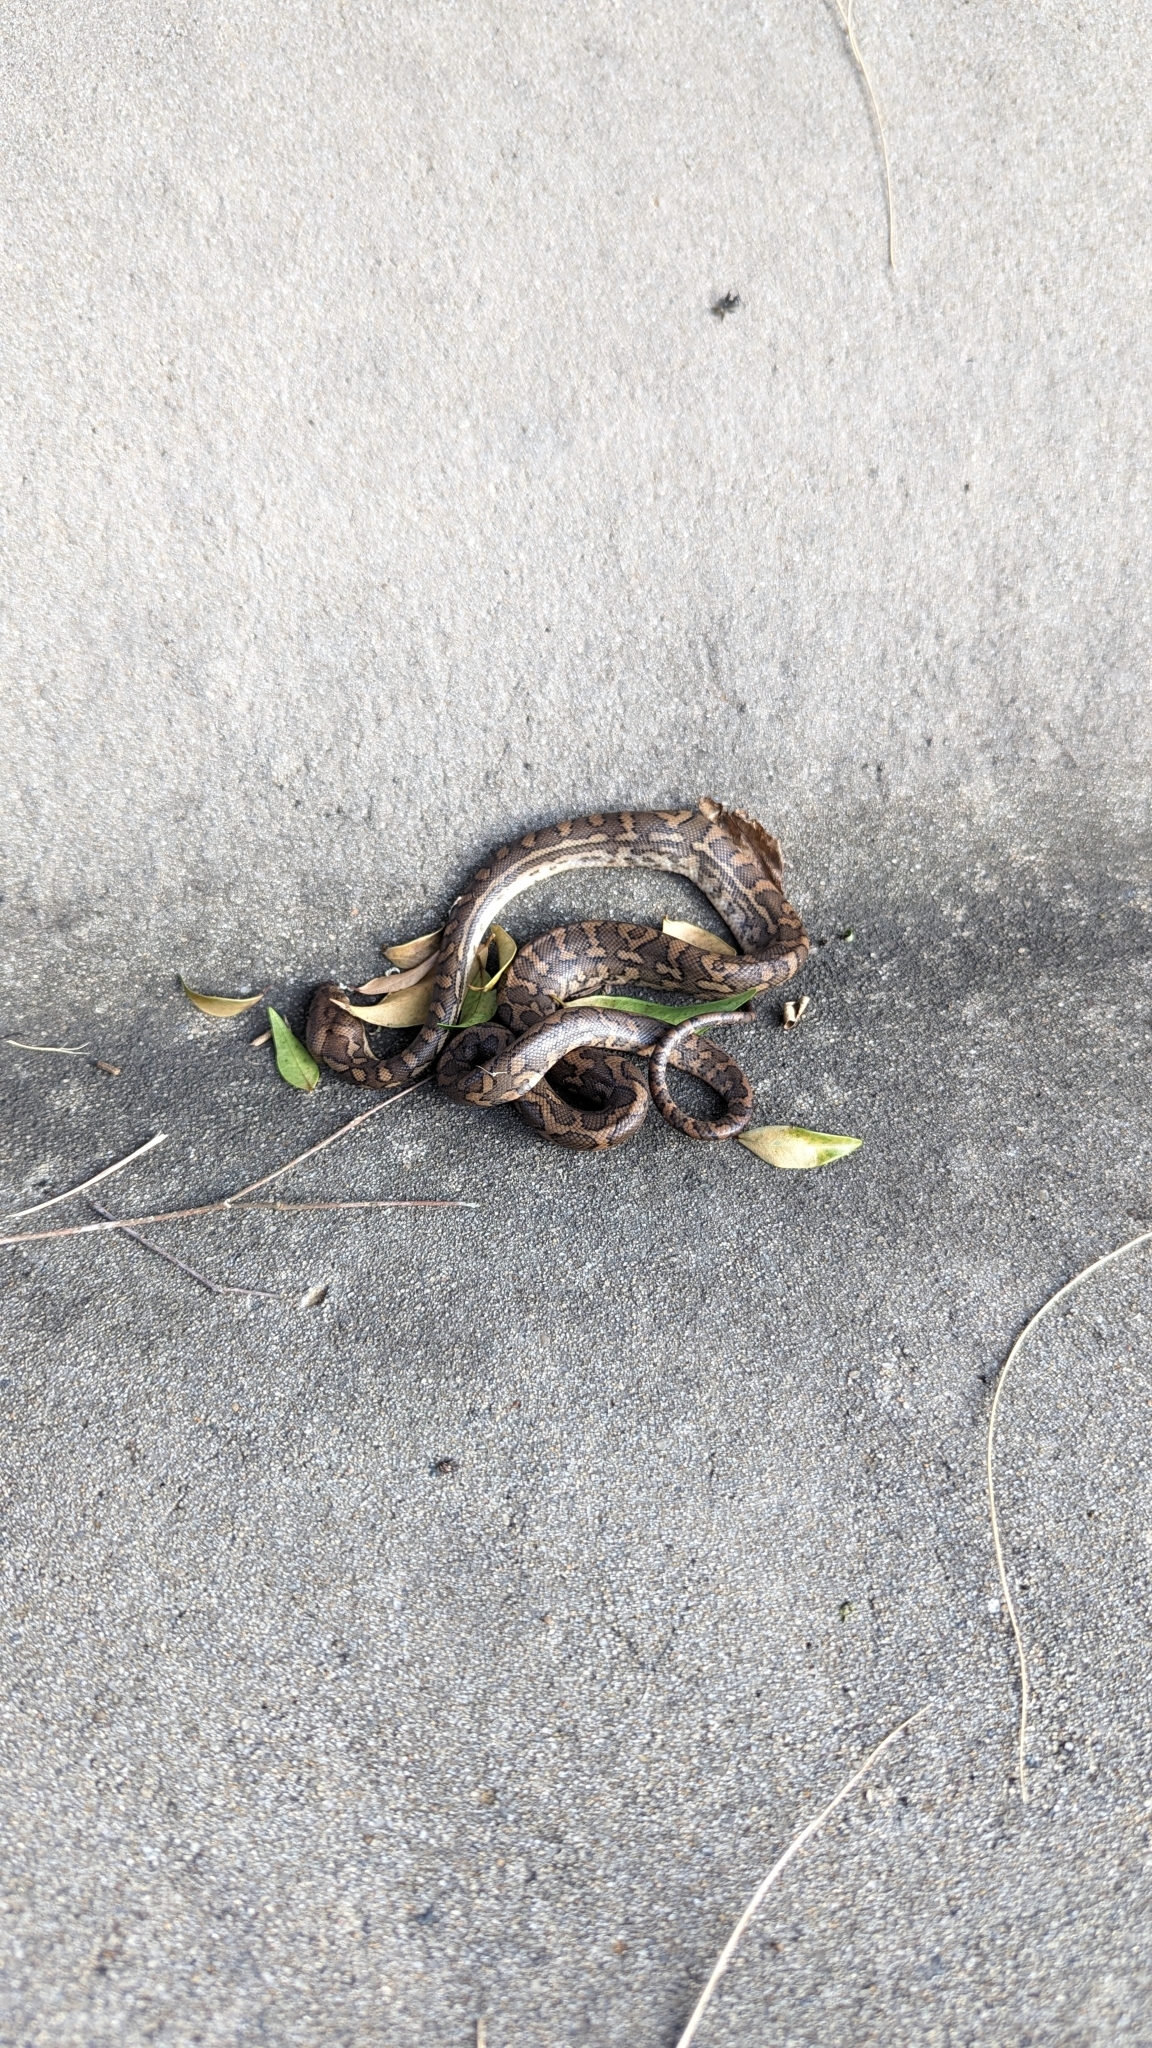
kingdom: Animalia
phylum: Chordata
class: Squamata
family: Pythonidae
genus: Morelia
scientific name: Morelia spilota
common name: Carpet python
